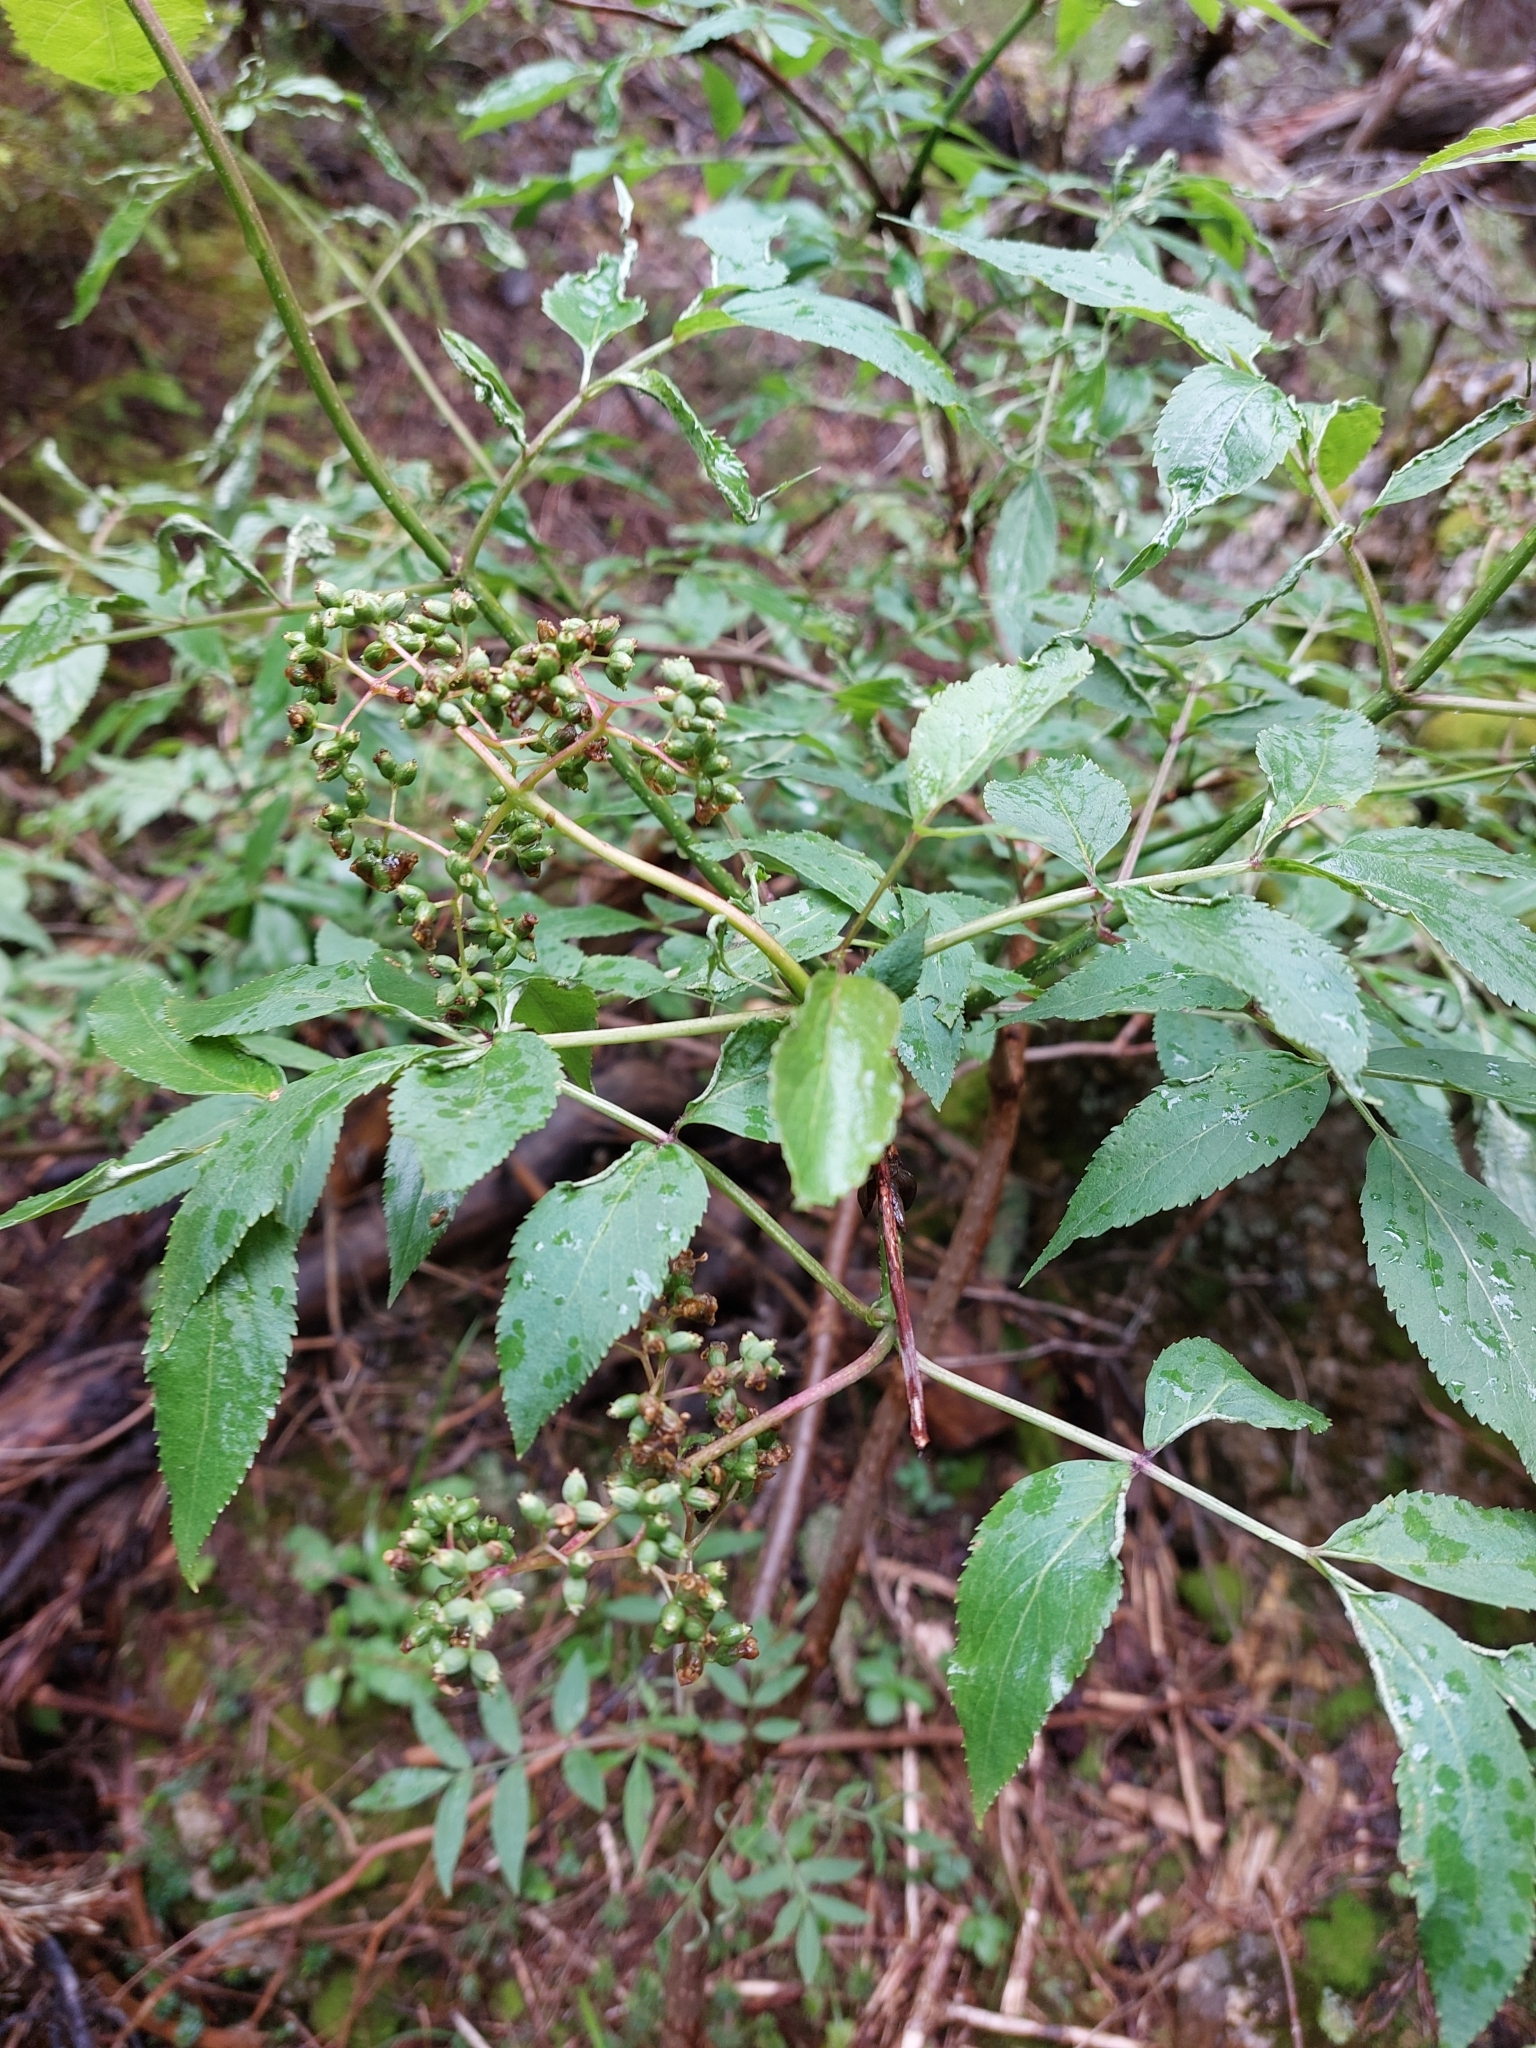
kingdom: Plantae
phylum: Tracheophyta
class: Magnoliopsida
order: Dipsacales
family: Viburnaceae
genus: Sambucus
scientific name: Sambucus racemosa
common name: Red-berried elder
